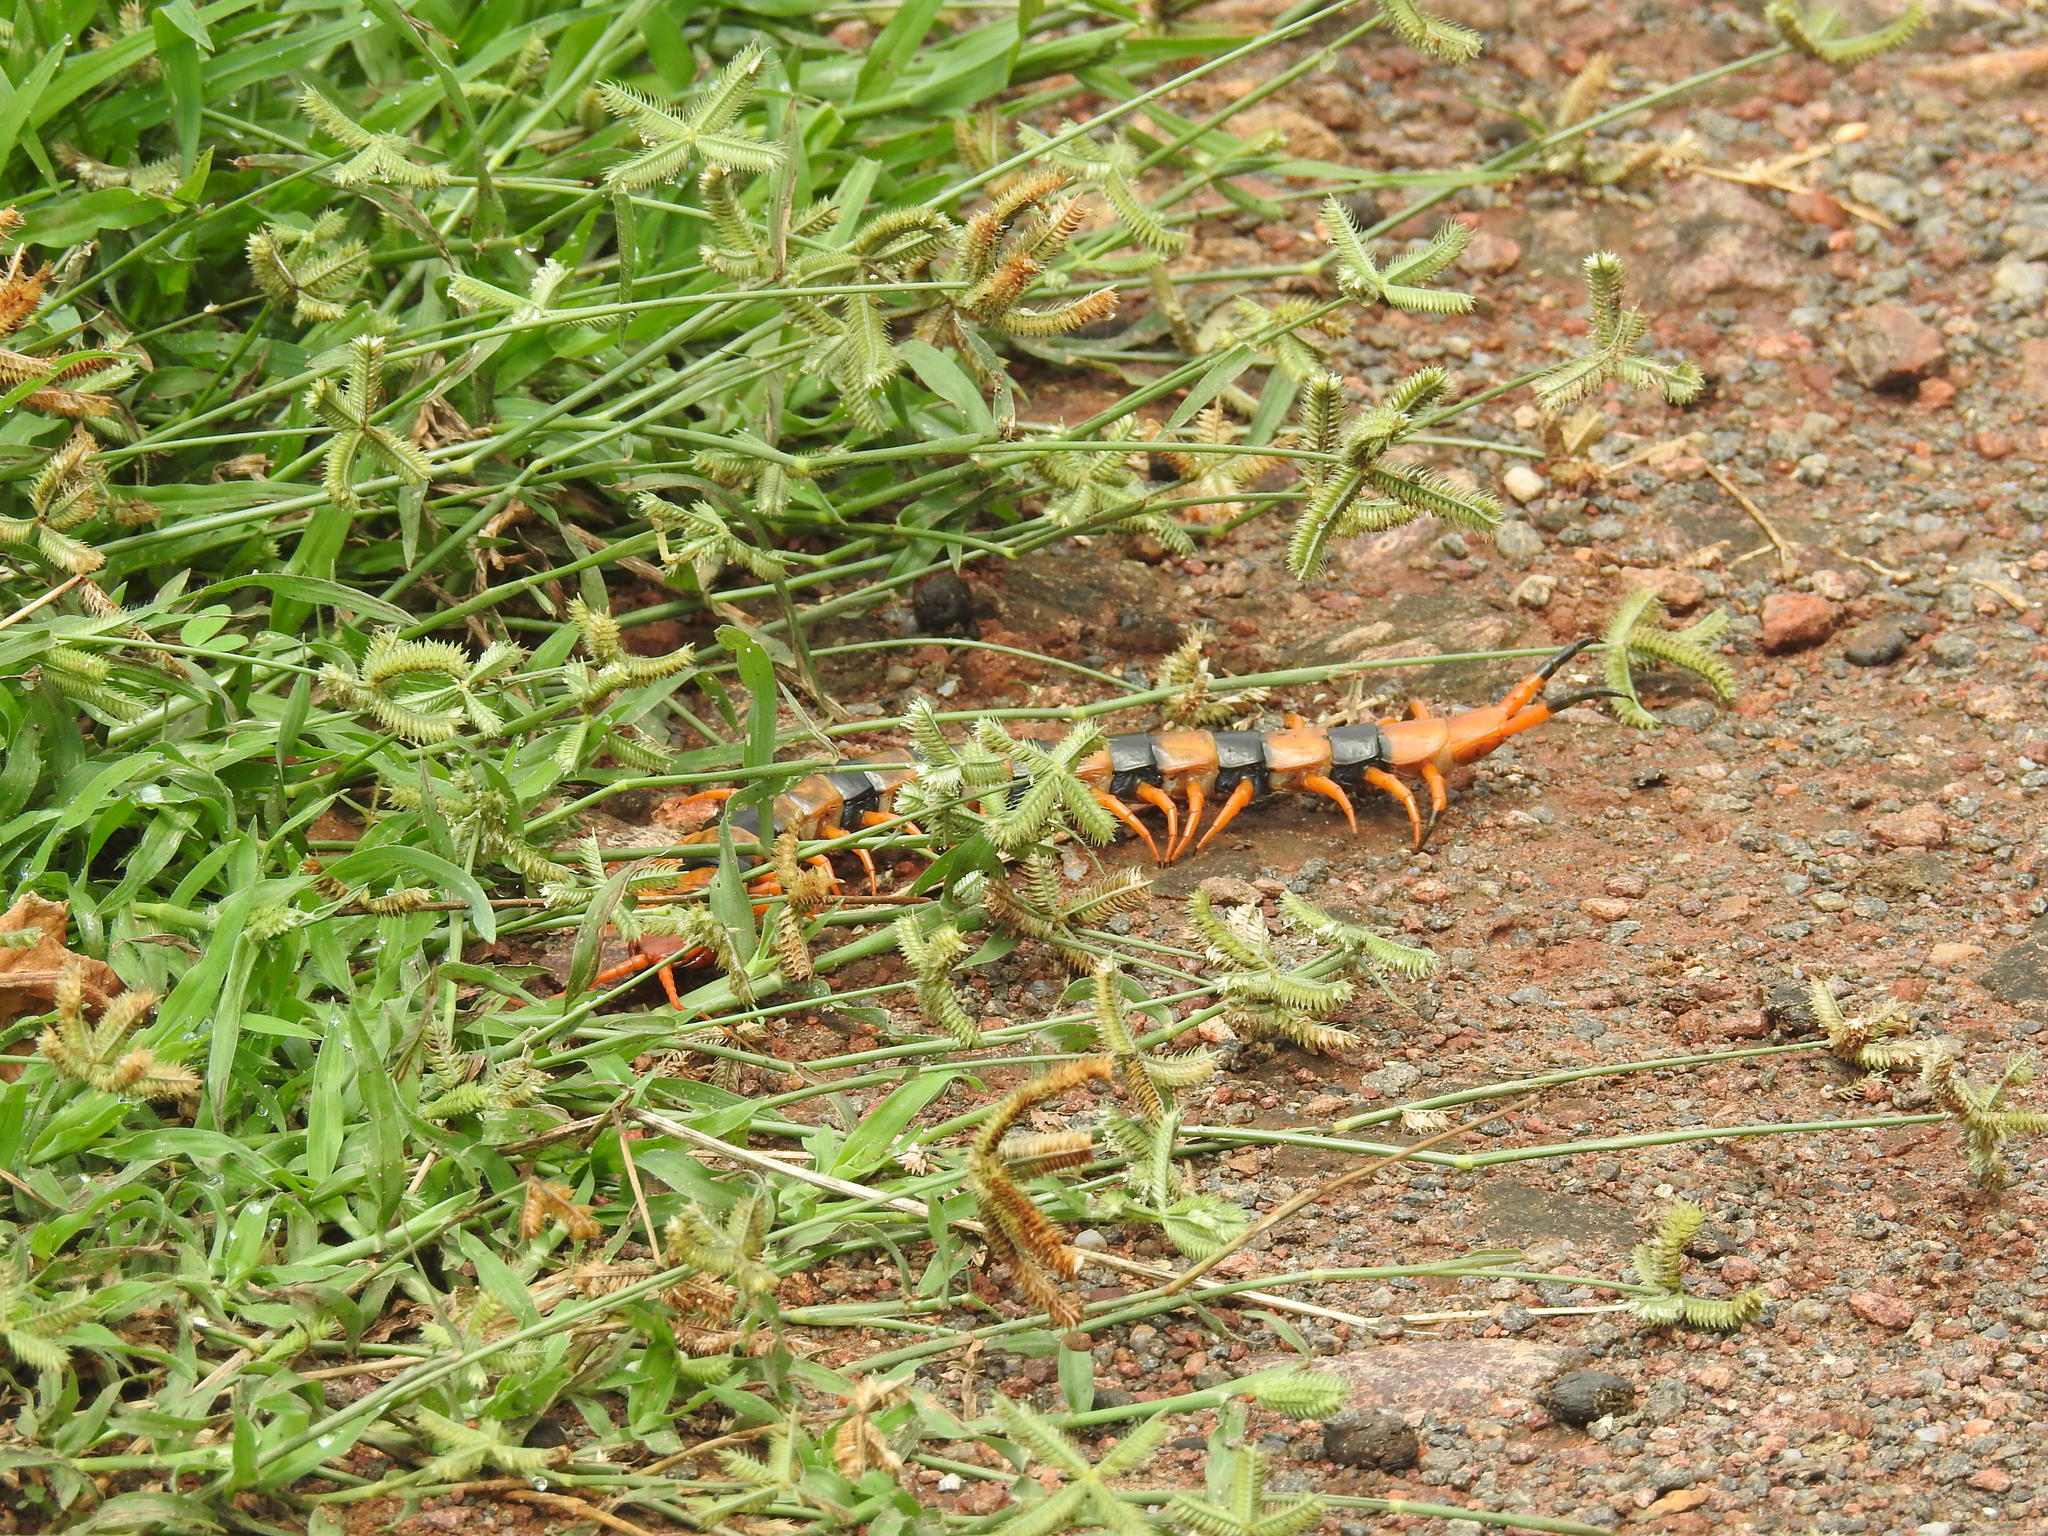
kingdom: Animalia
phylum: Arthropoda
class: Chilopoda
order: Scolopendromorpha
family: Scolopendridae
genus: Scolopendra
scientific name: Scolopendra hardwickei
